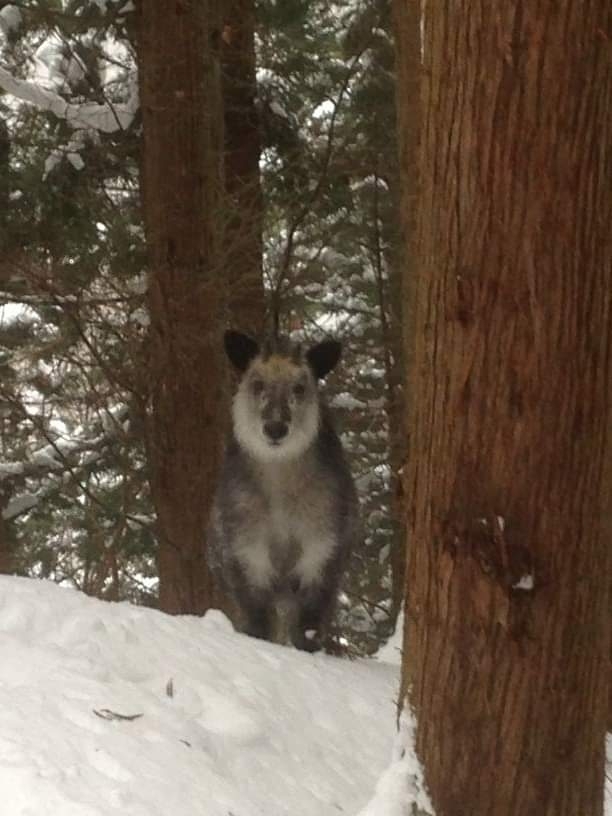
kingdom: Animalia
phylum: Chordata
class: Mammalia
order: Artiodactyla
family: Bovidae
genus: Capricornis
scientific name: Capricornis crispus
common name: Japanese serow
